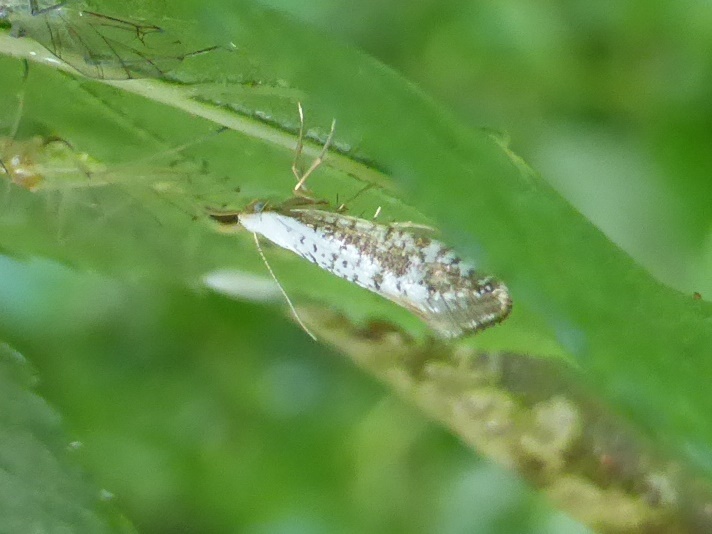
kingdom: Animalia
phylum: Arthropoda
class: Insecta
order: Lepidoptera
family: Argyresthiidae
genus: Argyresthia
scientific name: Argyresthia retinella
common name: Netted argent
